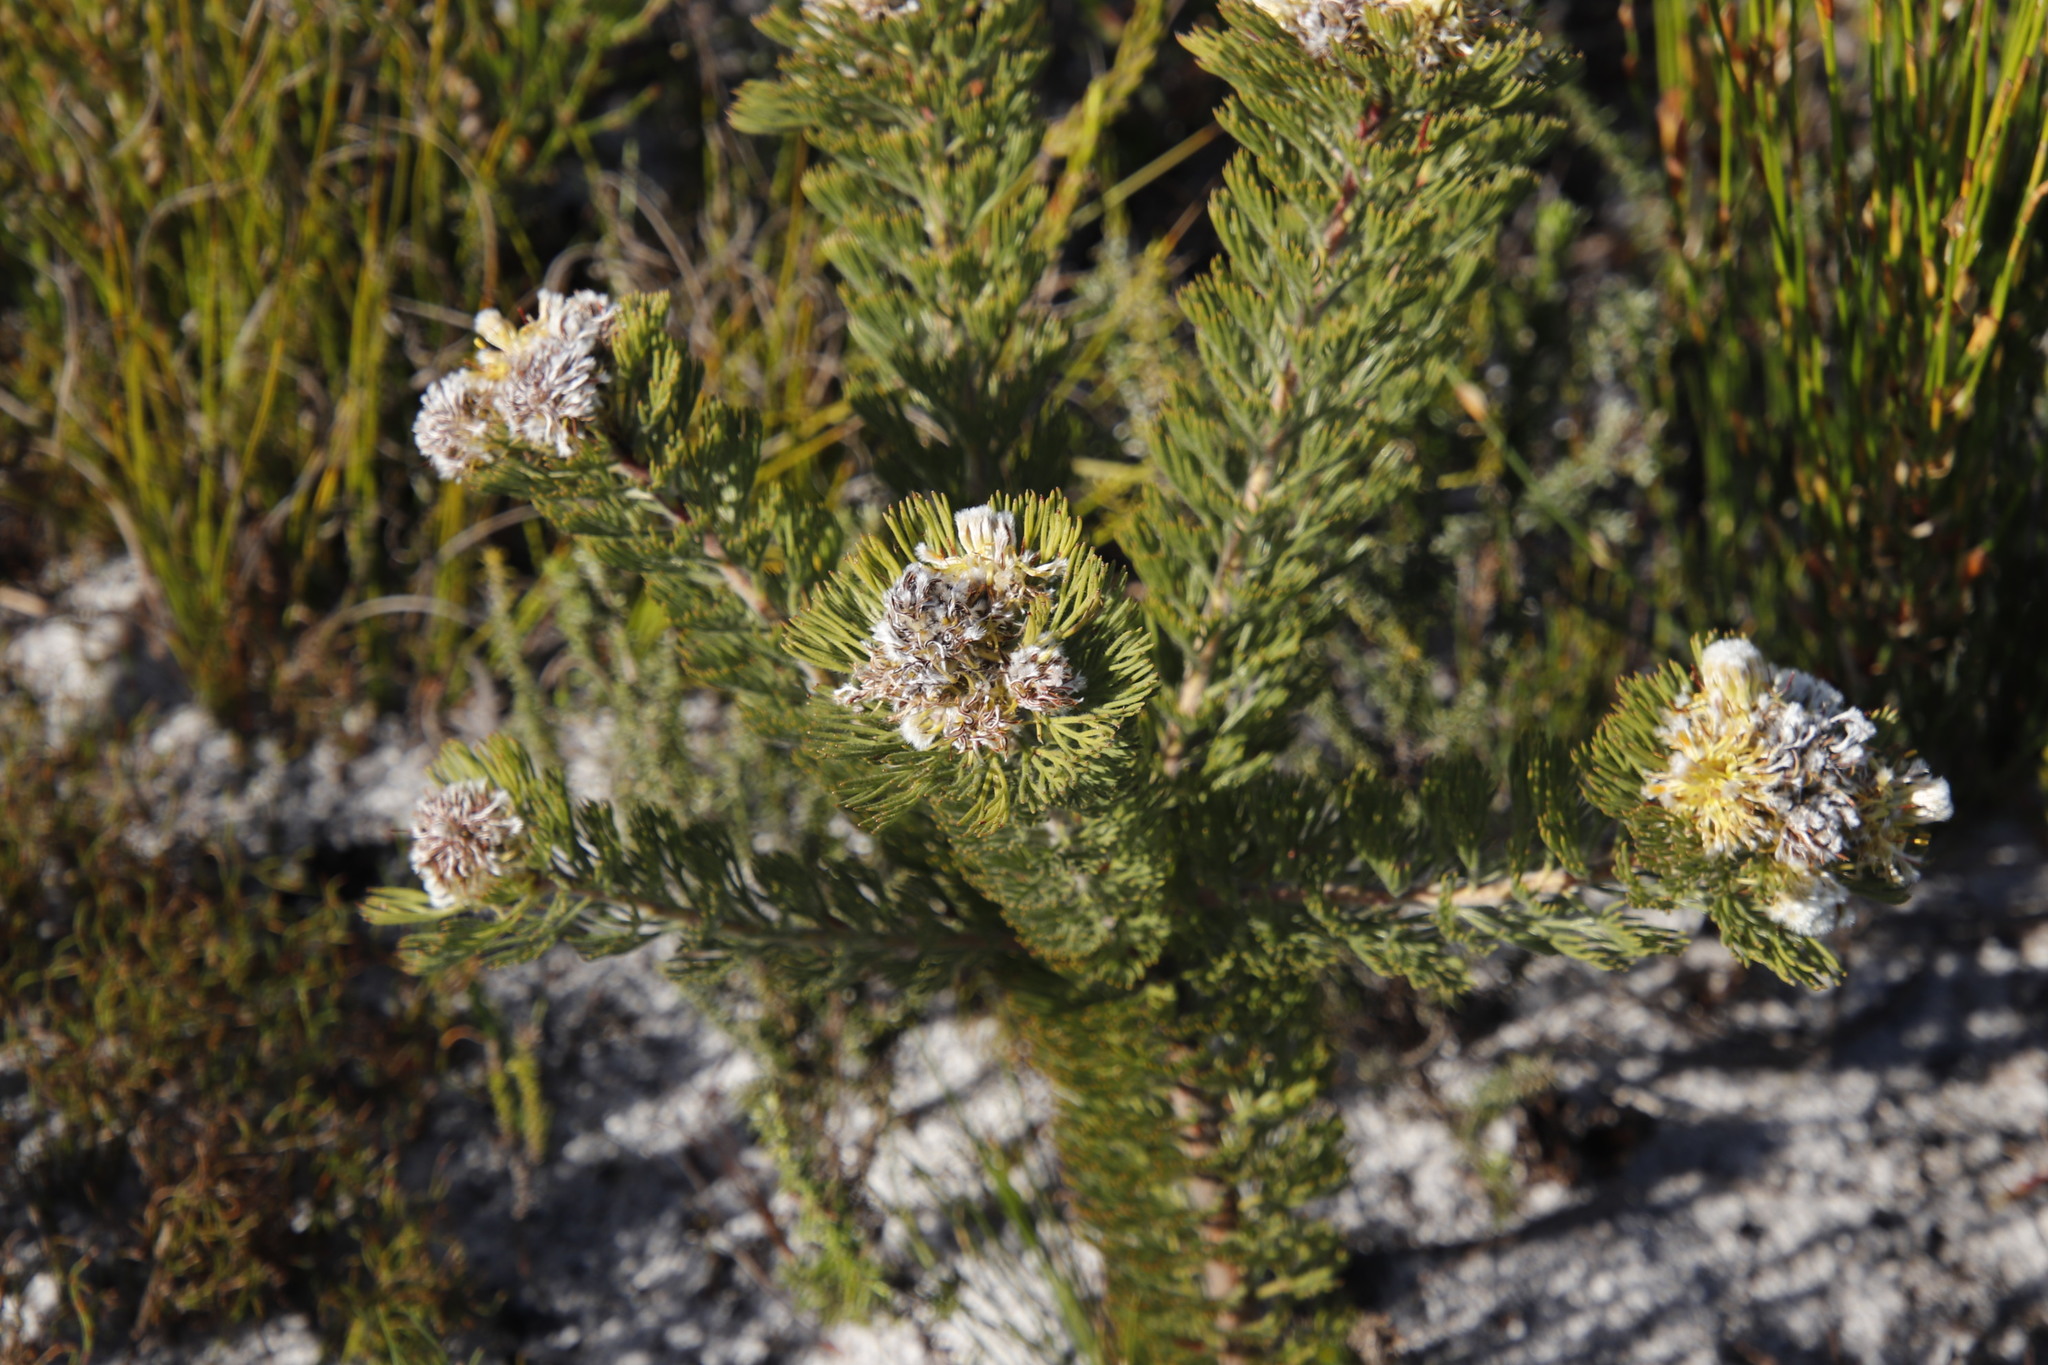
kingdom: Plantae
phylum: Tracheophyta
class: Magnoliopsida
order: Proteales
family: Proteaceae
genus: Serruria
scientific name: Serruria villosa
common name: Golden spiderhead
